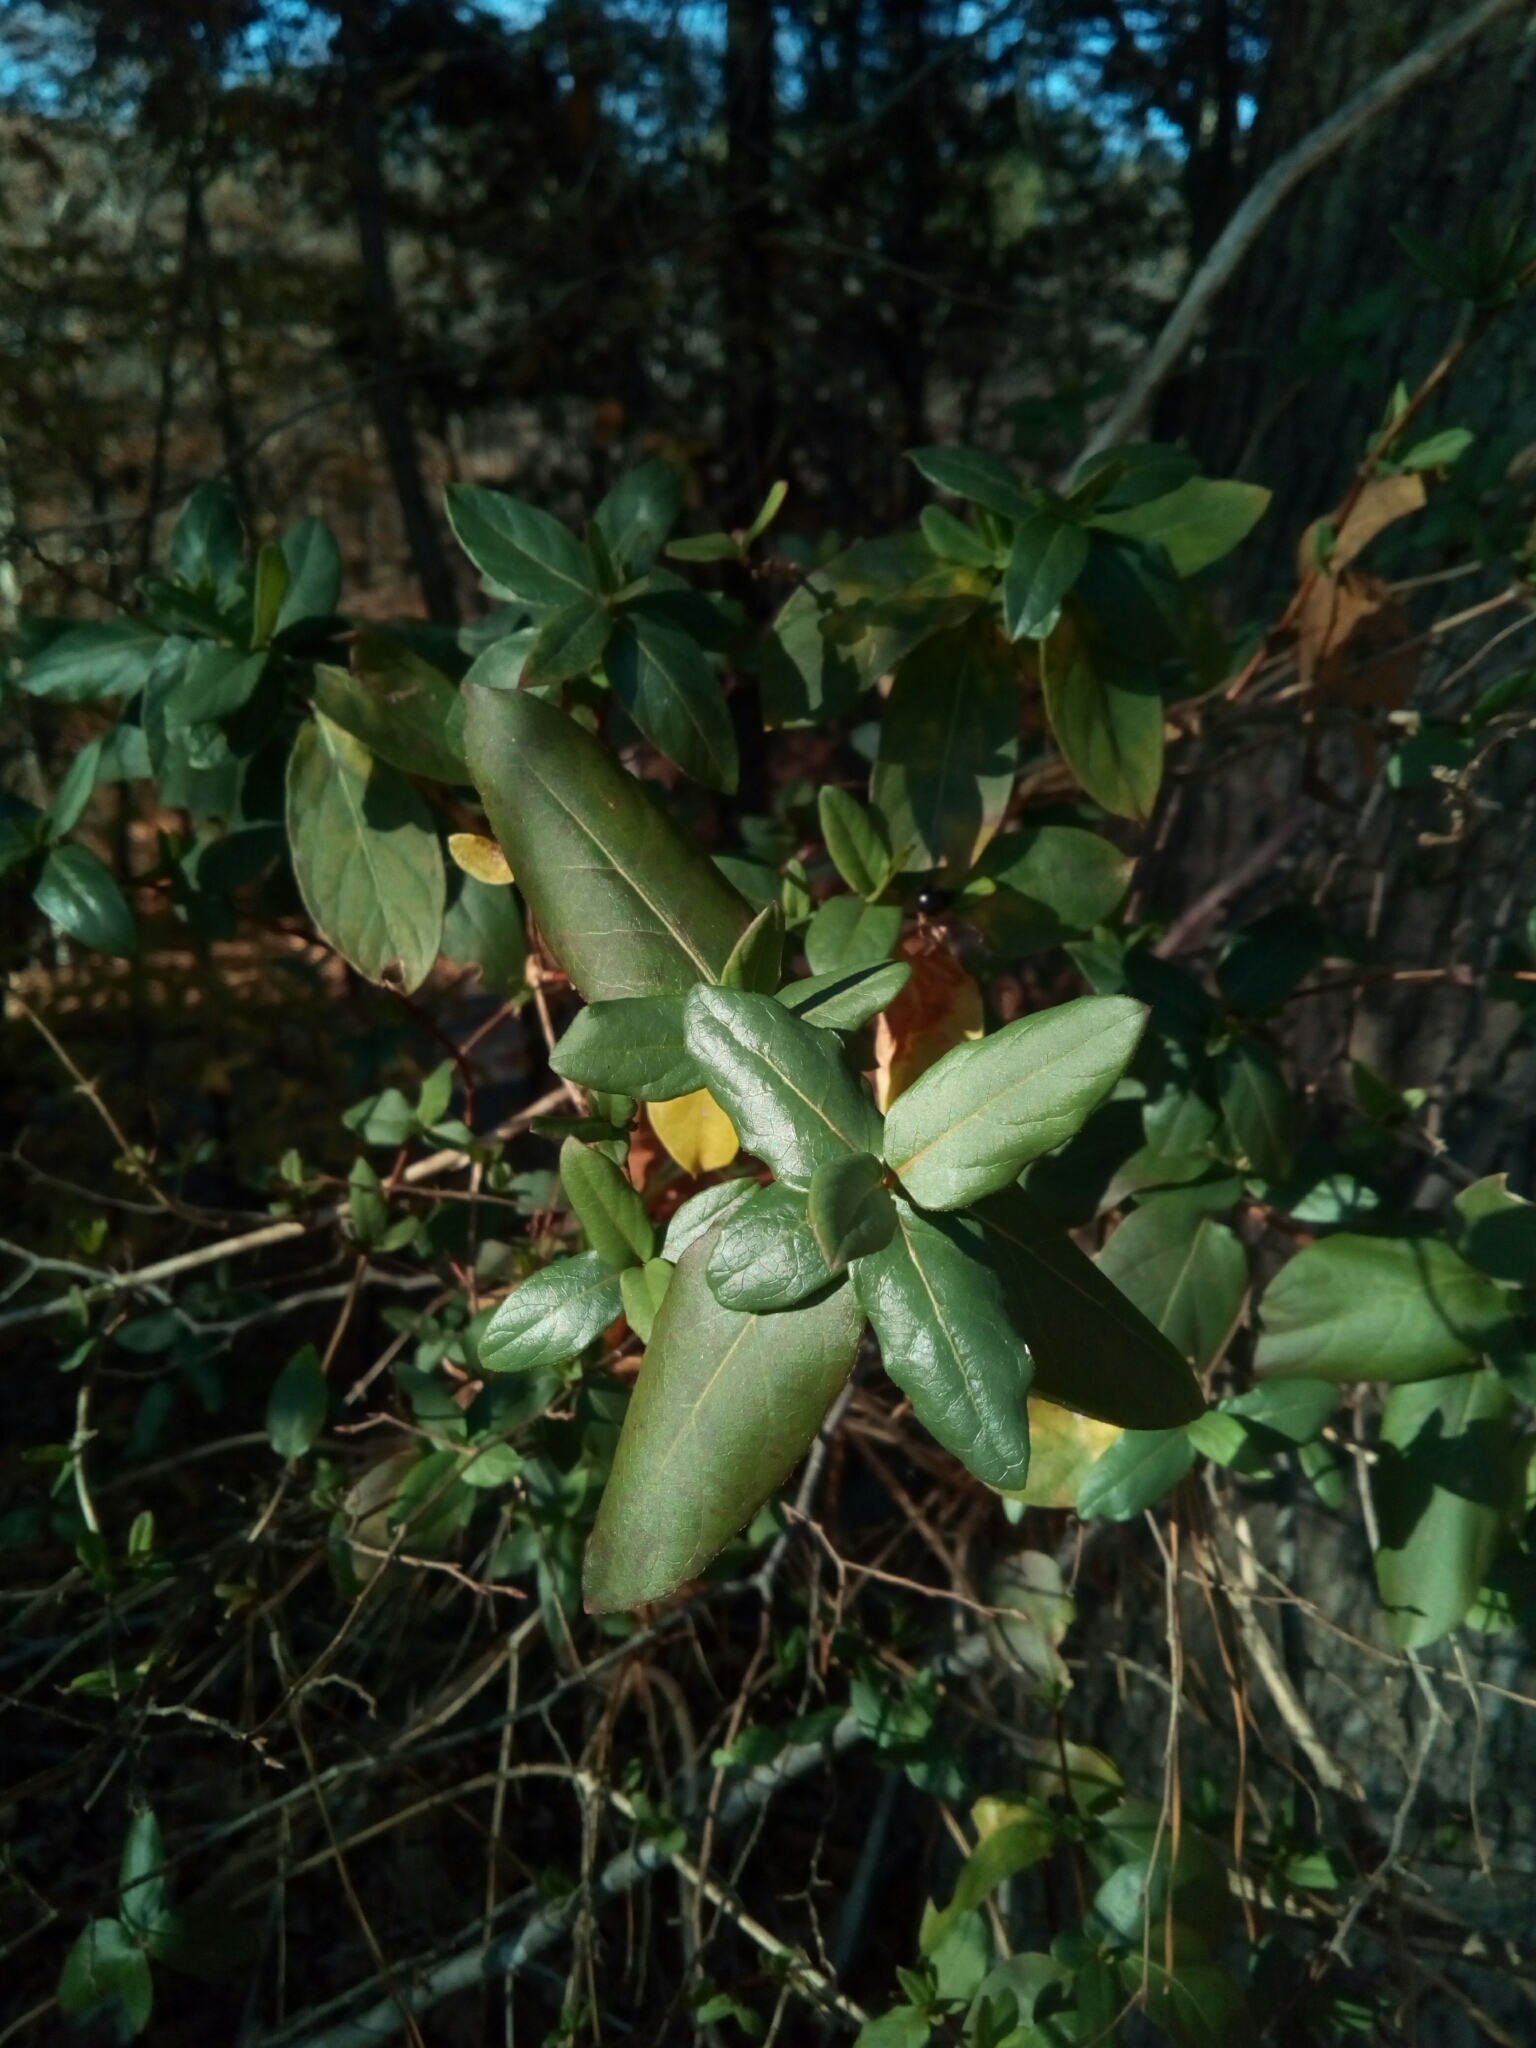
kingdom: Plantae
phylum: Tracheophyta
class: Magnoliopsida
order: Dipsacales
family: Caprifoliaceae
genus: Lonicera
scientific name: Lonicera japonica
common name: Japanese honeysuckle
